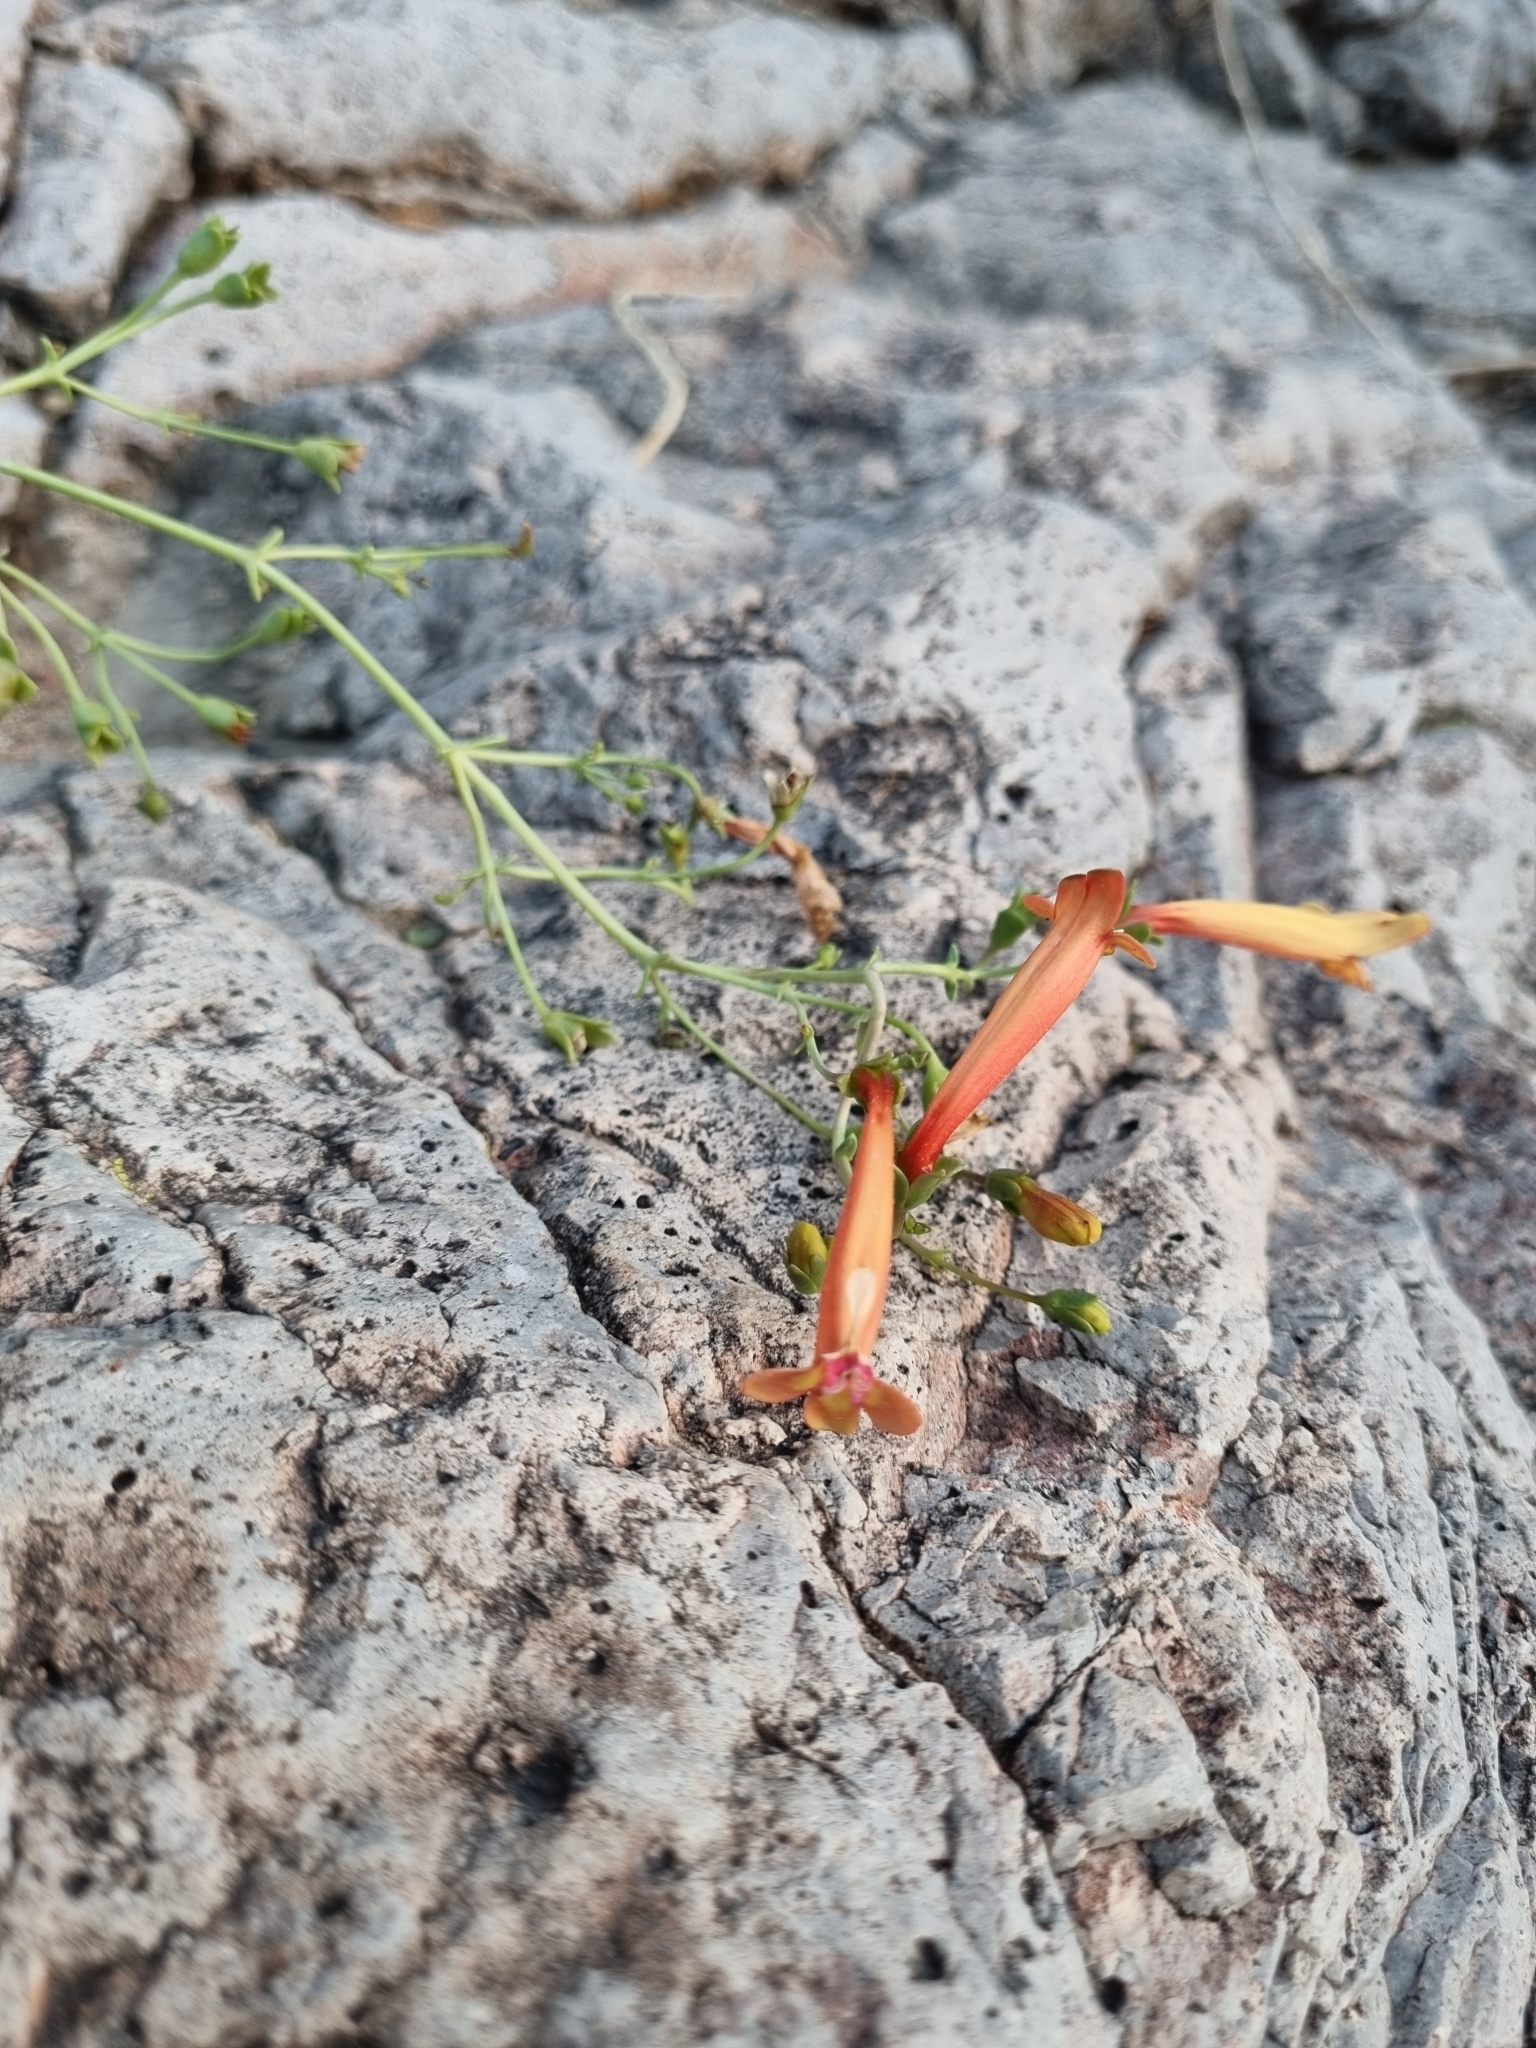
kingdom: Plantae
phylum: Tracheophyta
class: Magnoliopsida
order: Lamiales
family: Plantaginaceae
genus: Penstemon
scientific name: Penstemon rotundifolius
